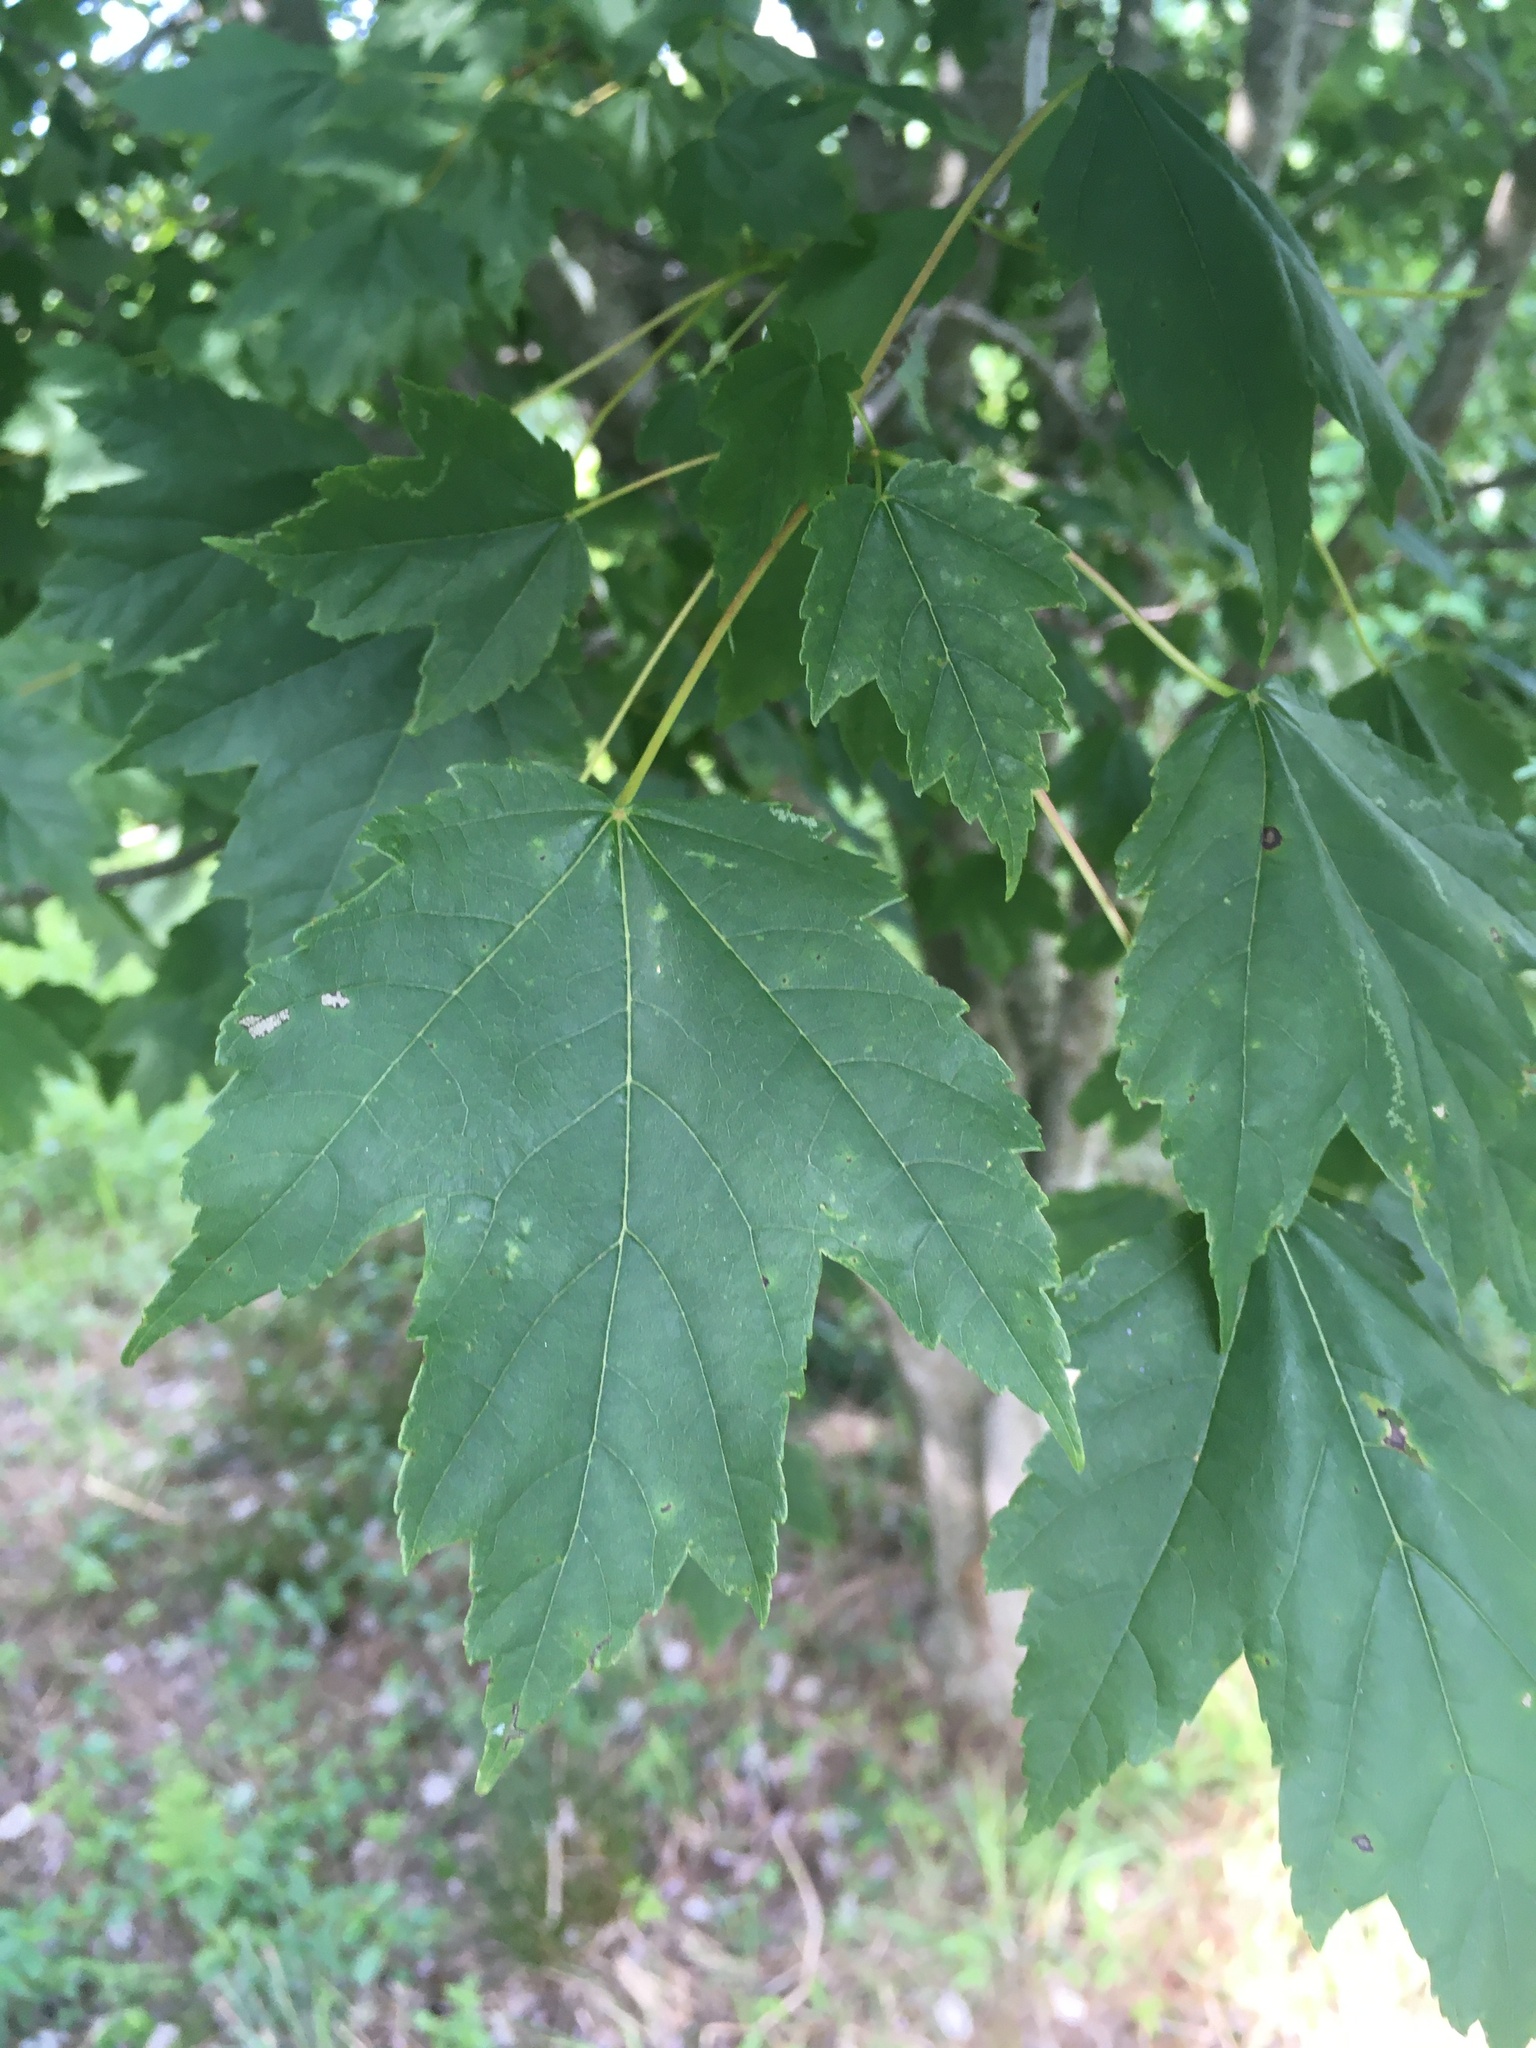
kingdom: Plantae
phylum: Tracheophyta
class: Magnoliopsida
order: Sapindales
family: Sapindaceae
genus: Acer
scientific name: Acer rubrum
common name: Red maple
